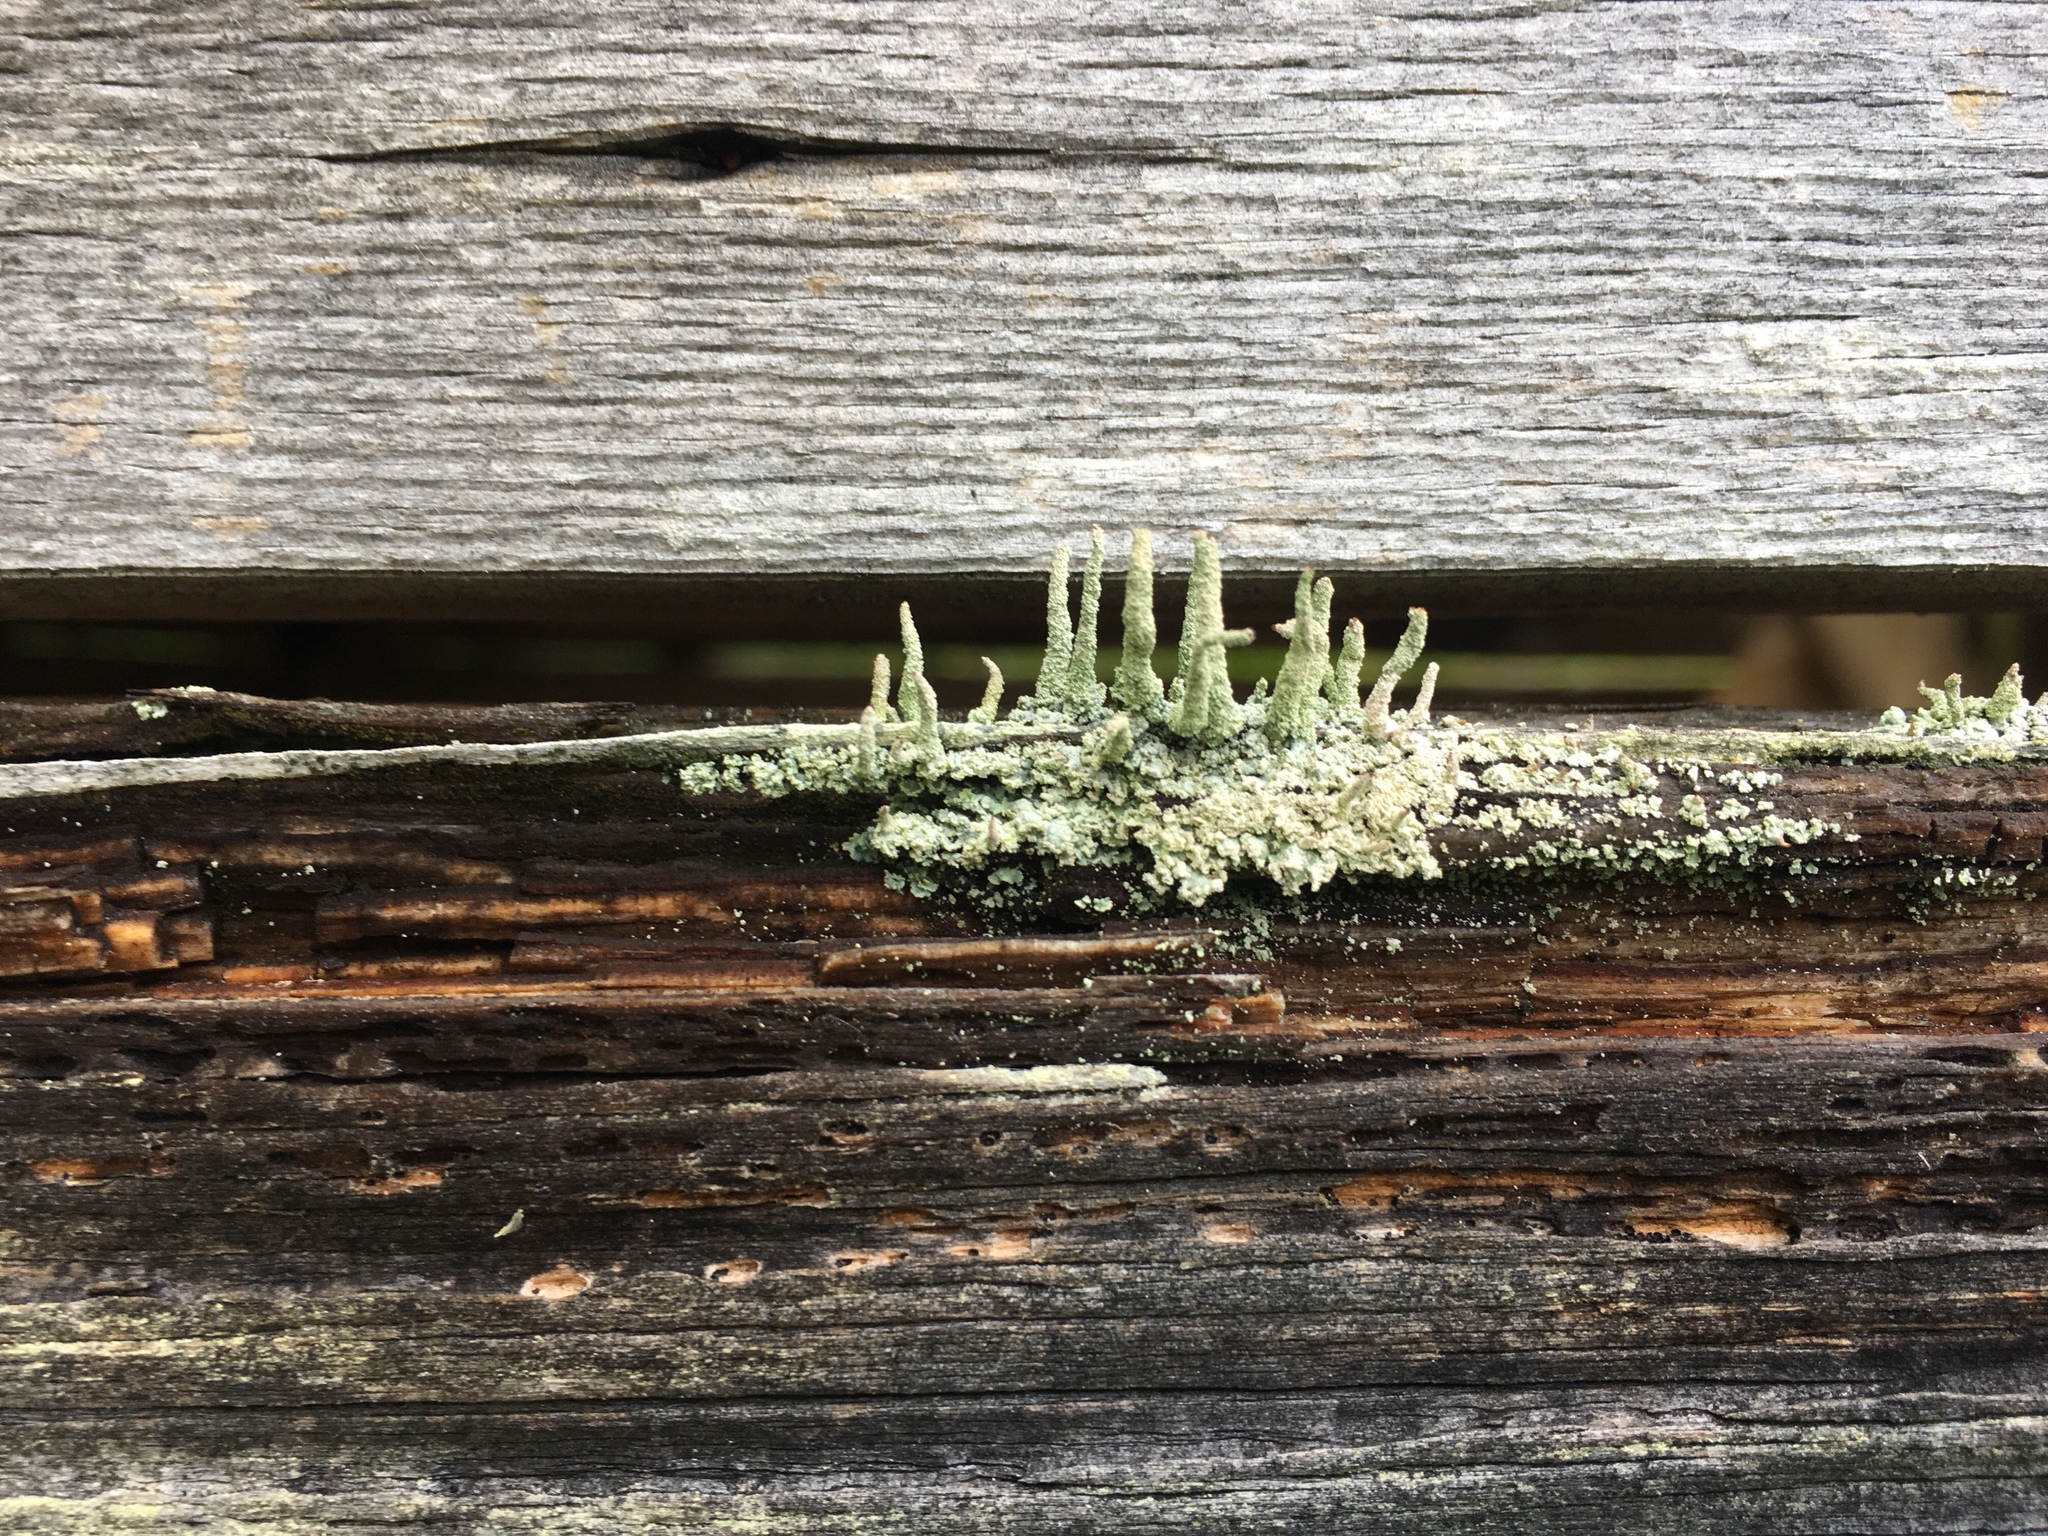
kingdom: Fungi
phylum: Ascomycota
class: Lecanoromycetes
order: Lecanorales
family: Cladoniaceae
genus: Cladonia
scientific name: Cladonia polydactyla
